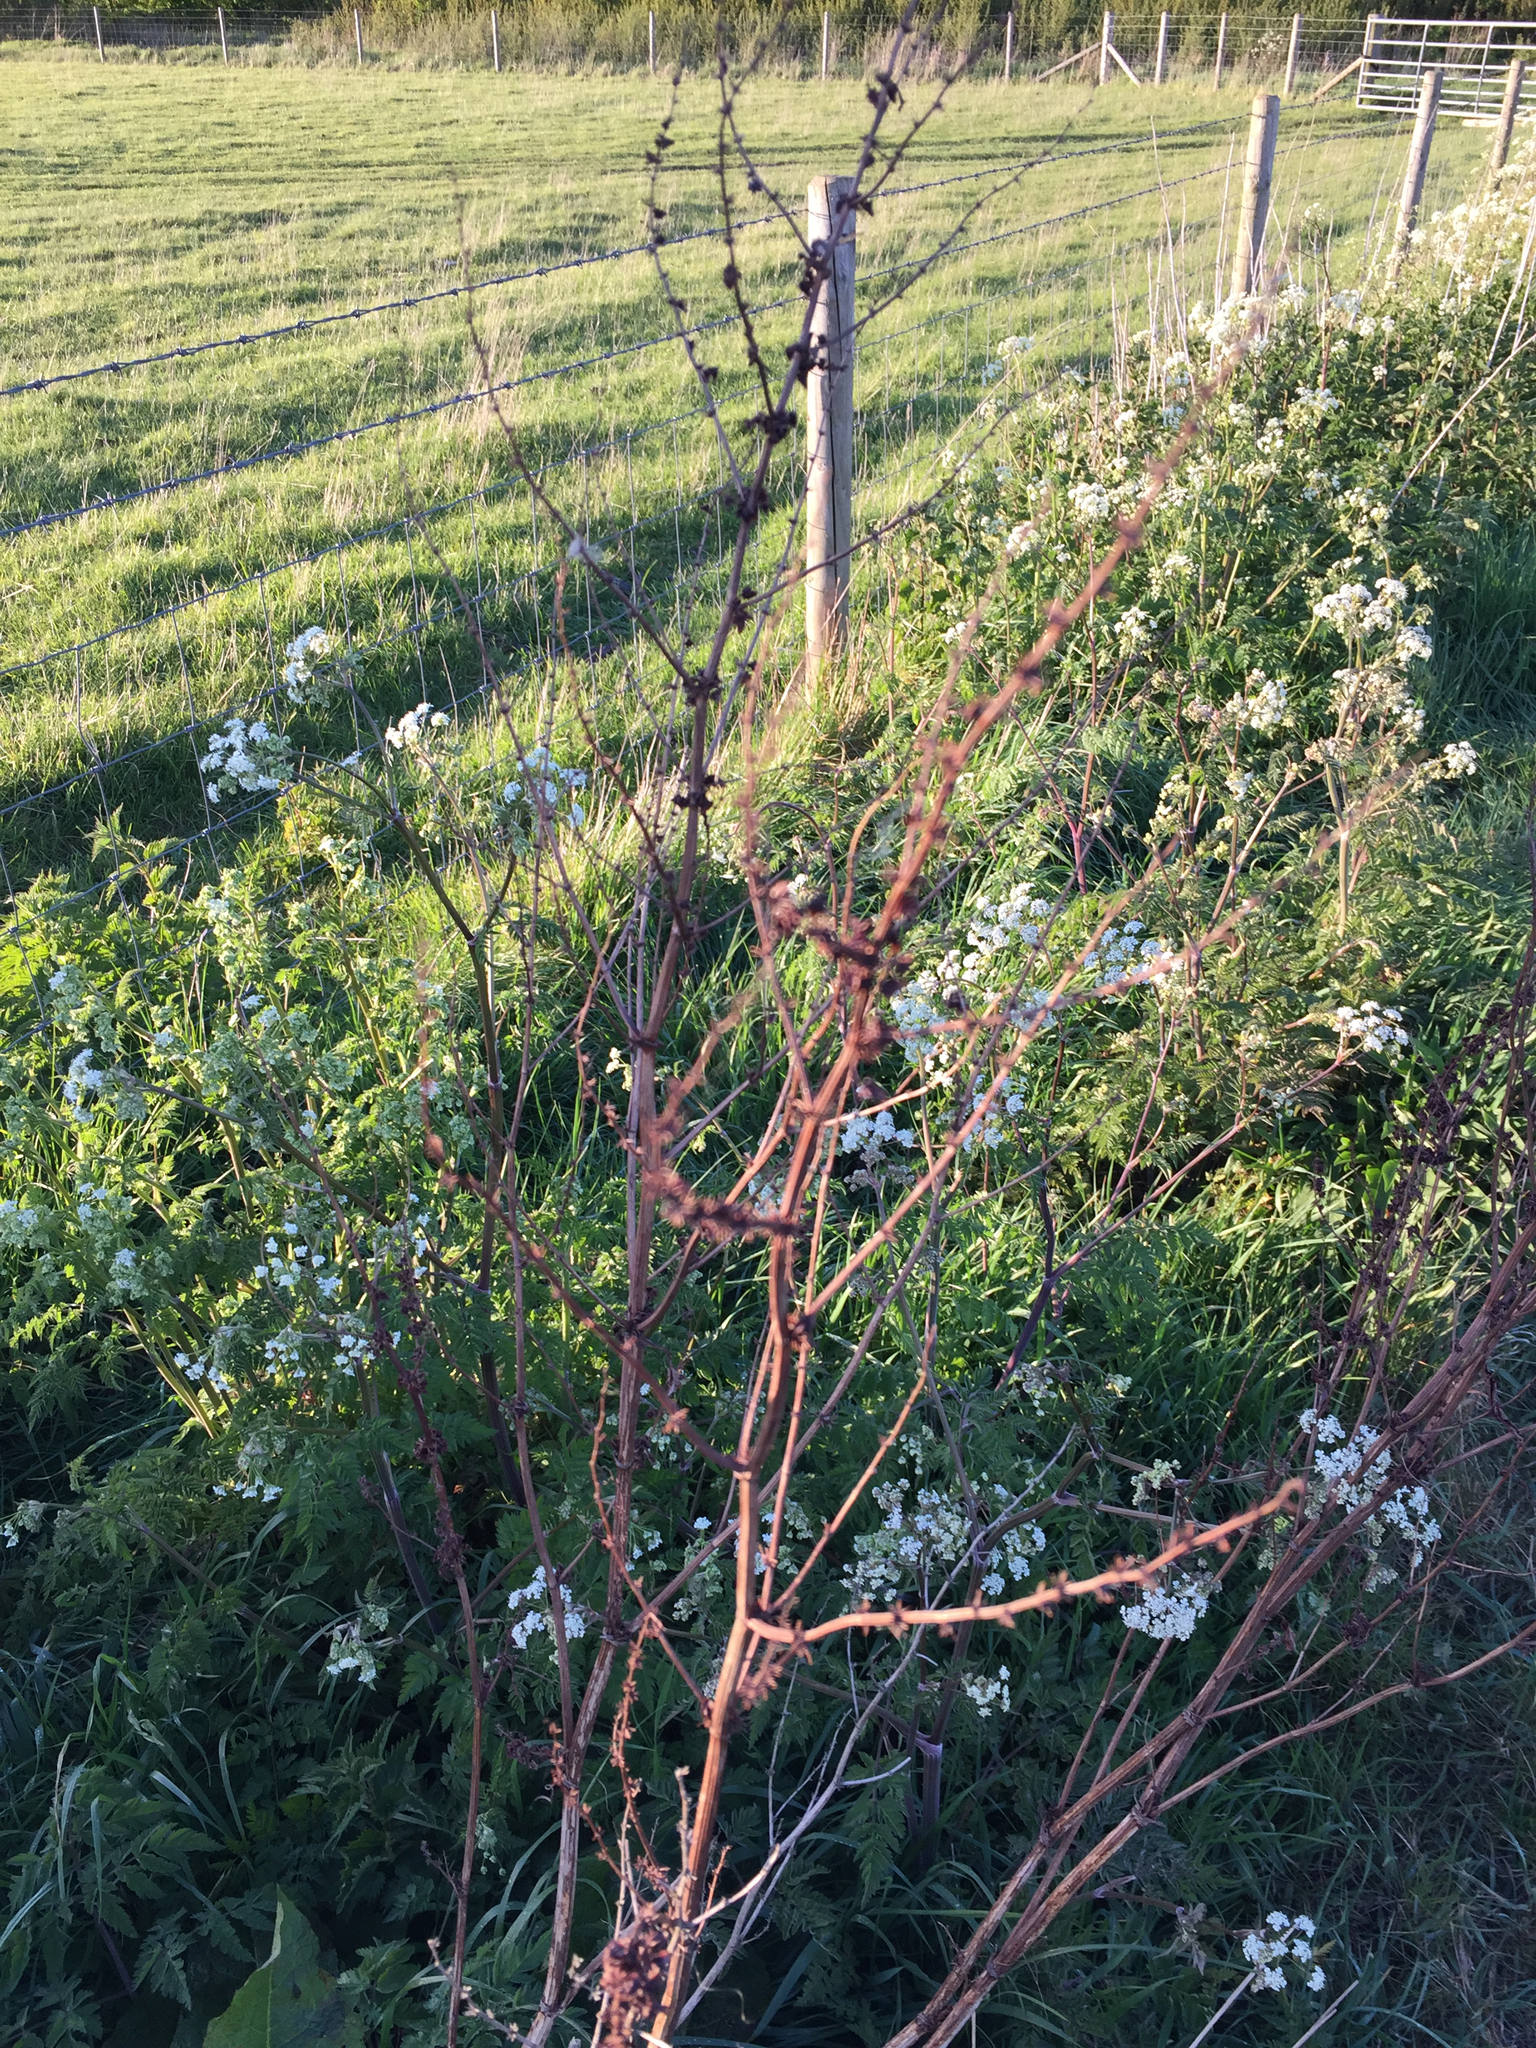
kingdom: Plantae
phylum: Tracheophyta
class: Magnoliopsida
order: Caryophyllales
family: Polygonaceae
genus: Rumex
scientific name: Rumex obtusifolius
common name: Bitter dock
